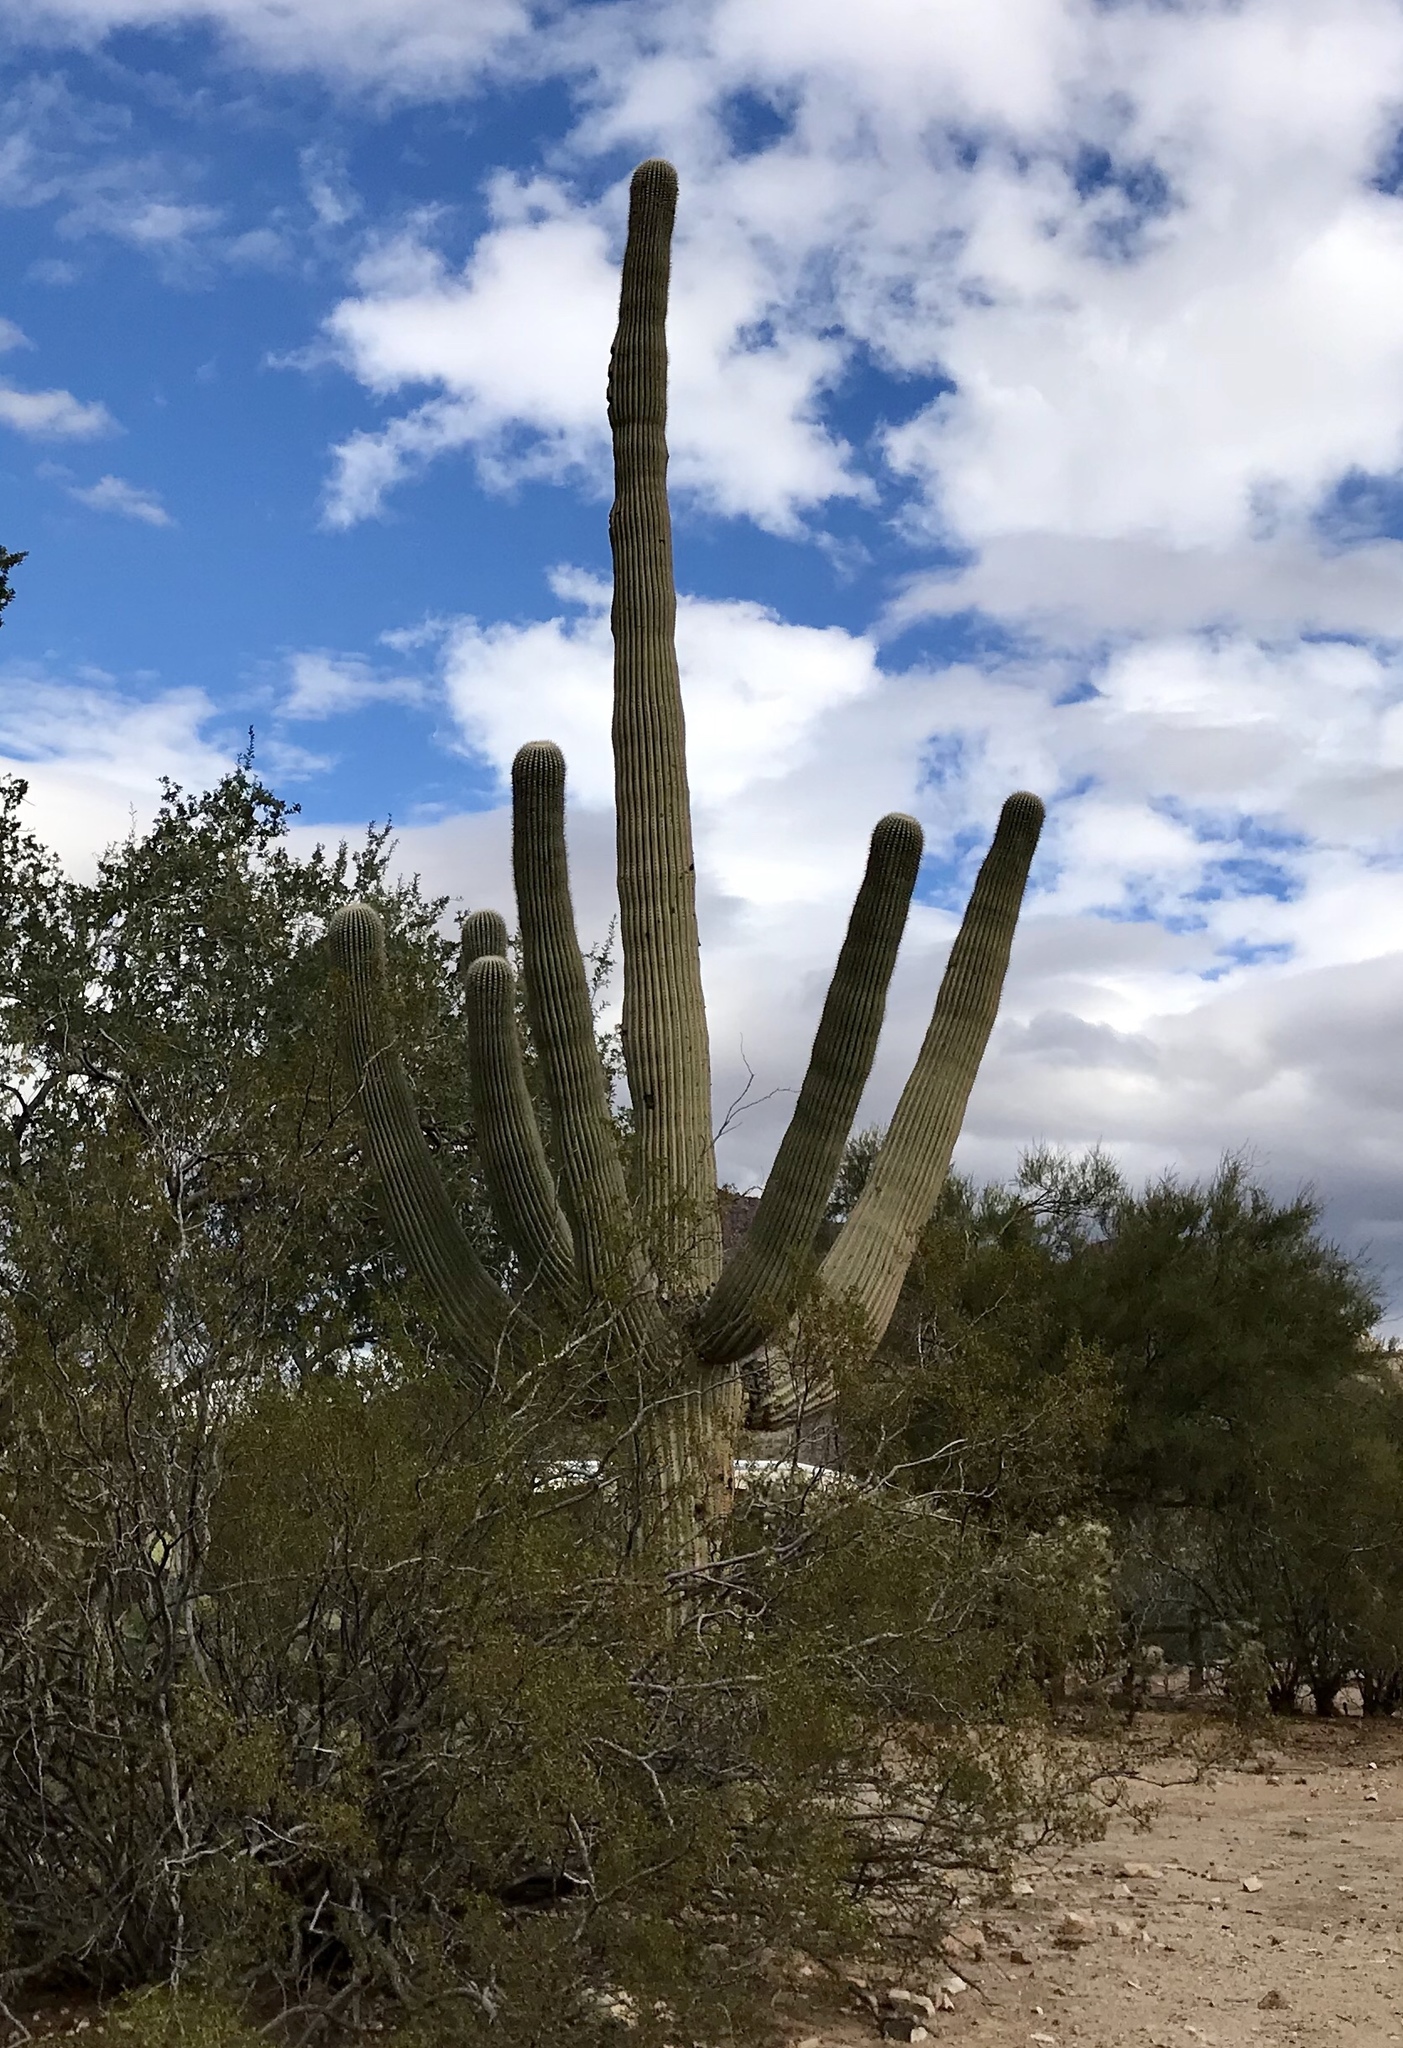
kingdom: Plantae
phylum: Tracheophyta
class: Magnoliopsida
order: Caryophyllales
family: Cactaceae
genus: Carnegiea
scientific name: Carnegiea gigantea
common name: Saguaro
